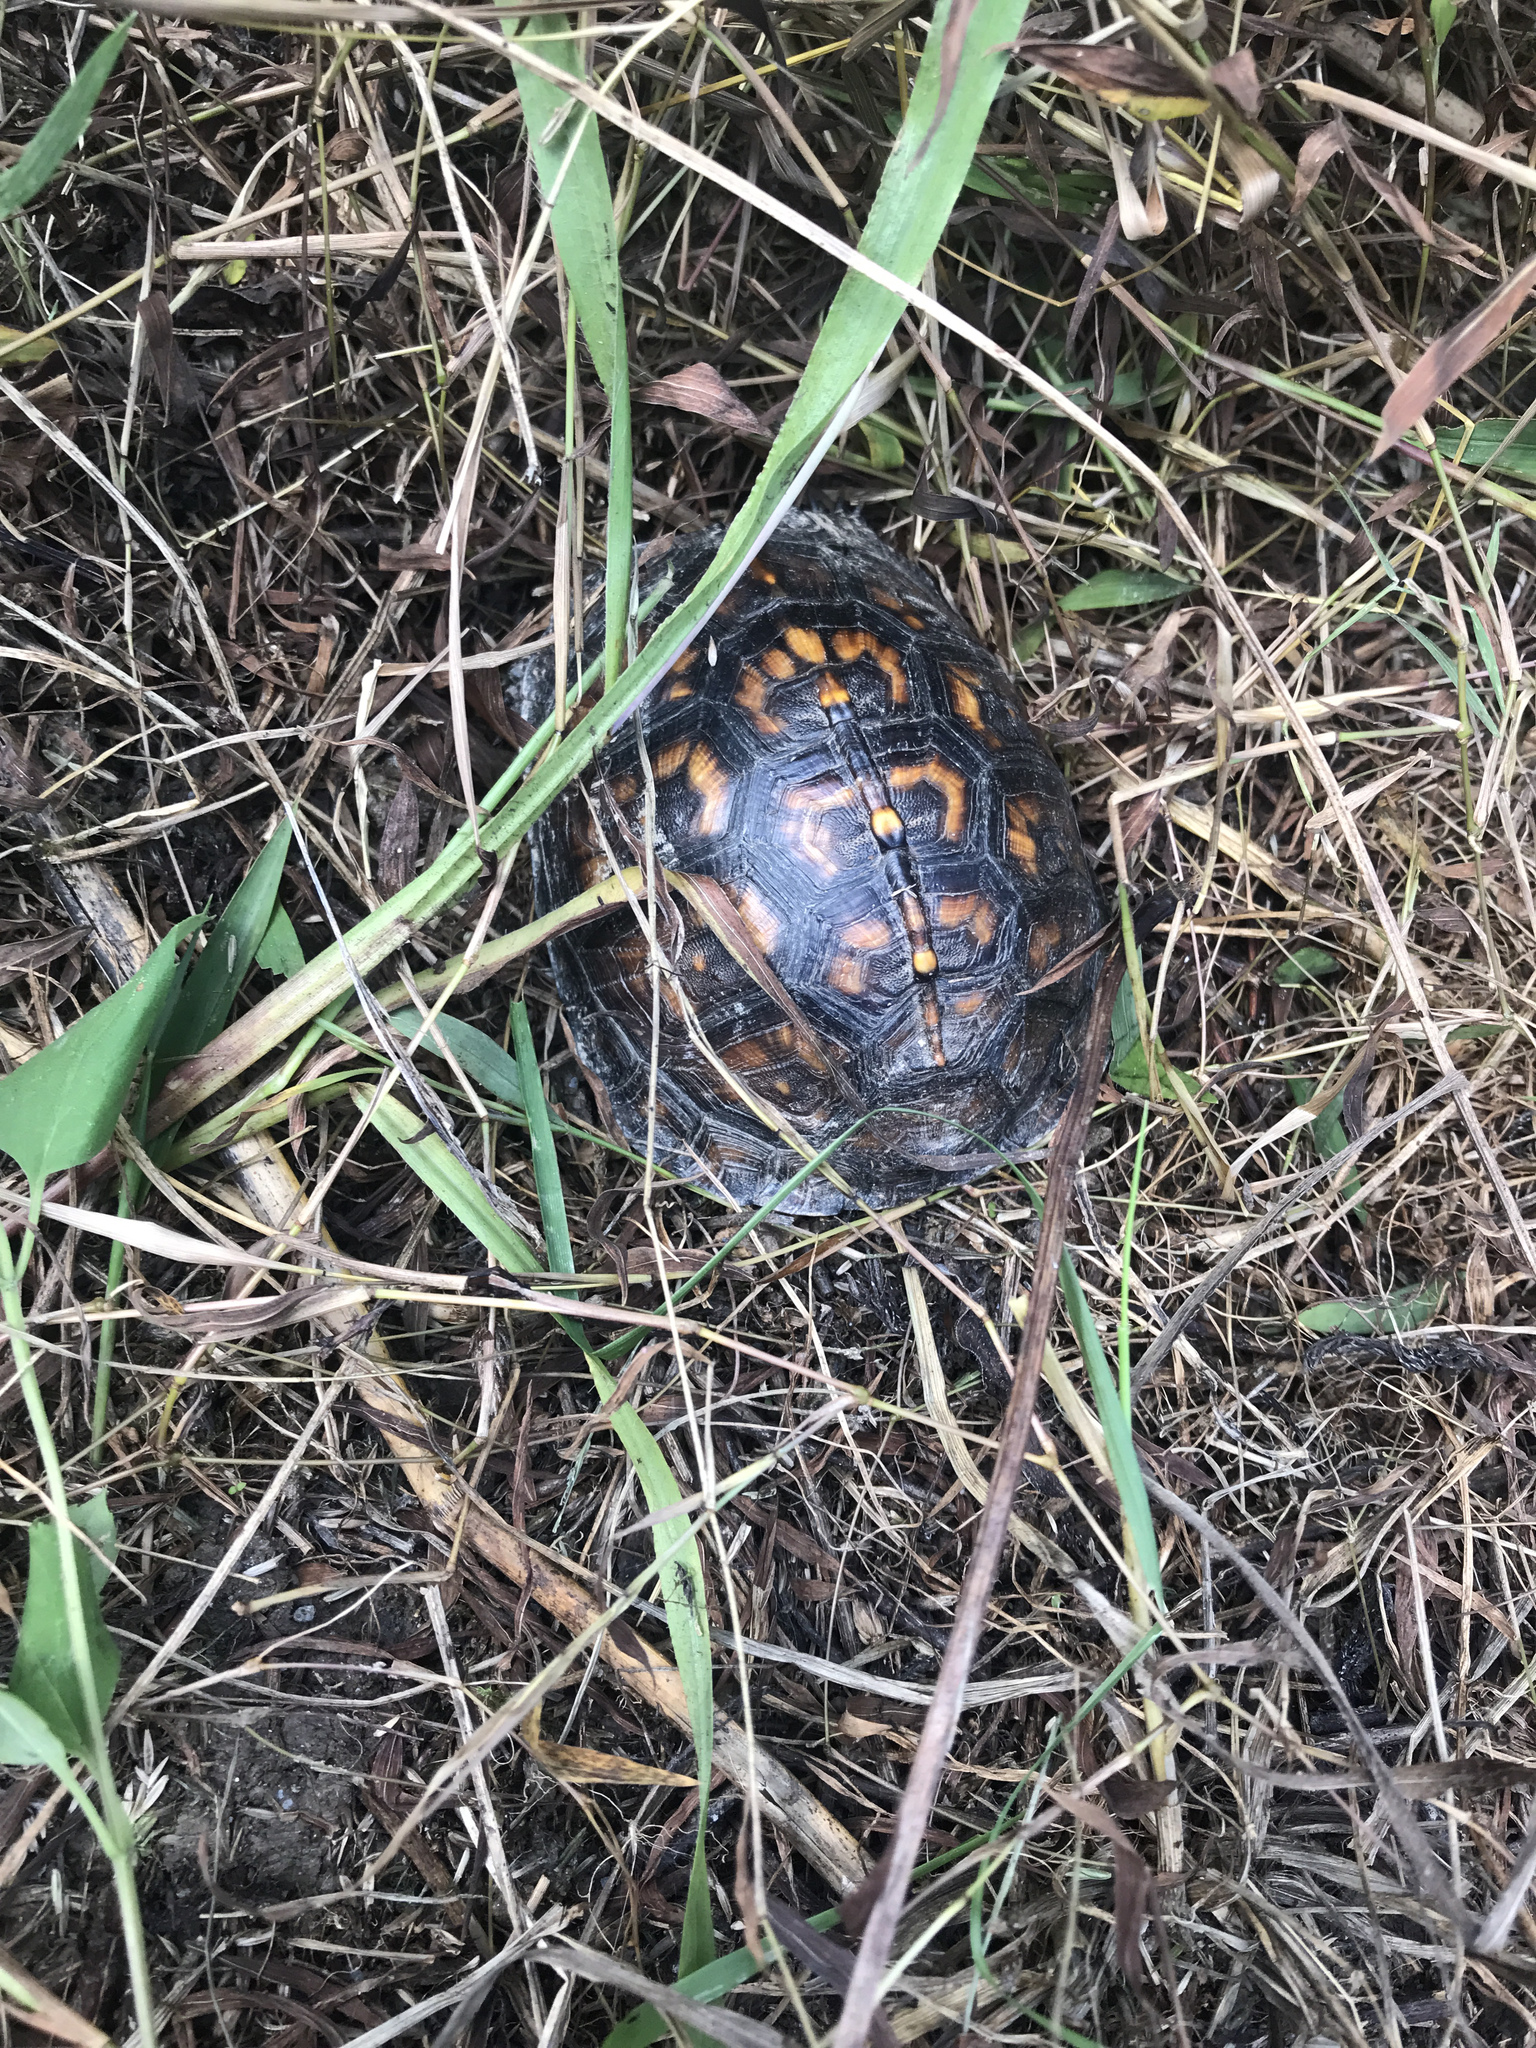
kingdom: Animalia
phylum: Chordata
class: Testudines
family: Emydidae
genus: Terrapene
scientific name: Terrapene carolina
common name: Common box turtle
